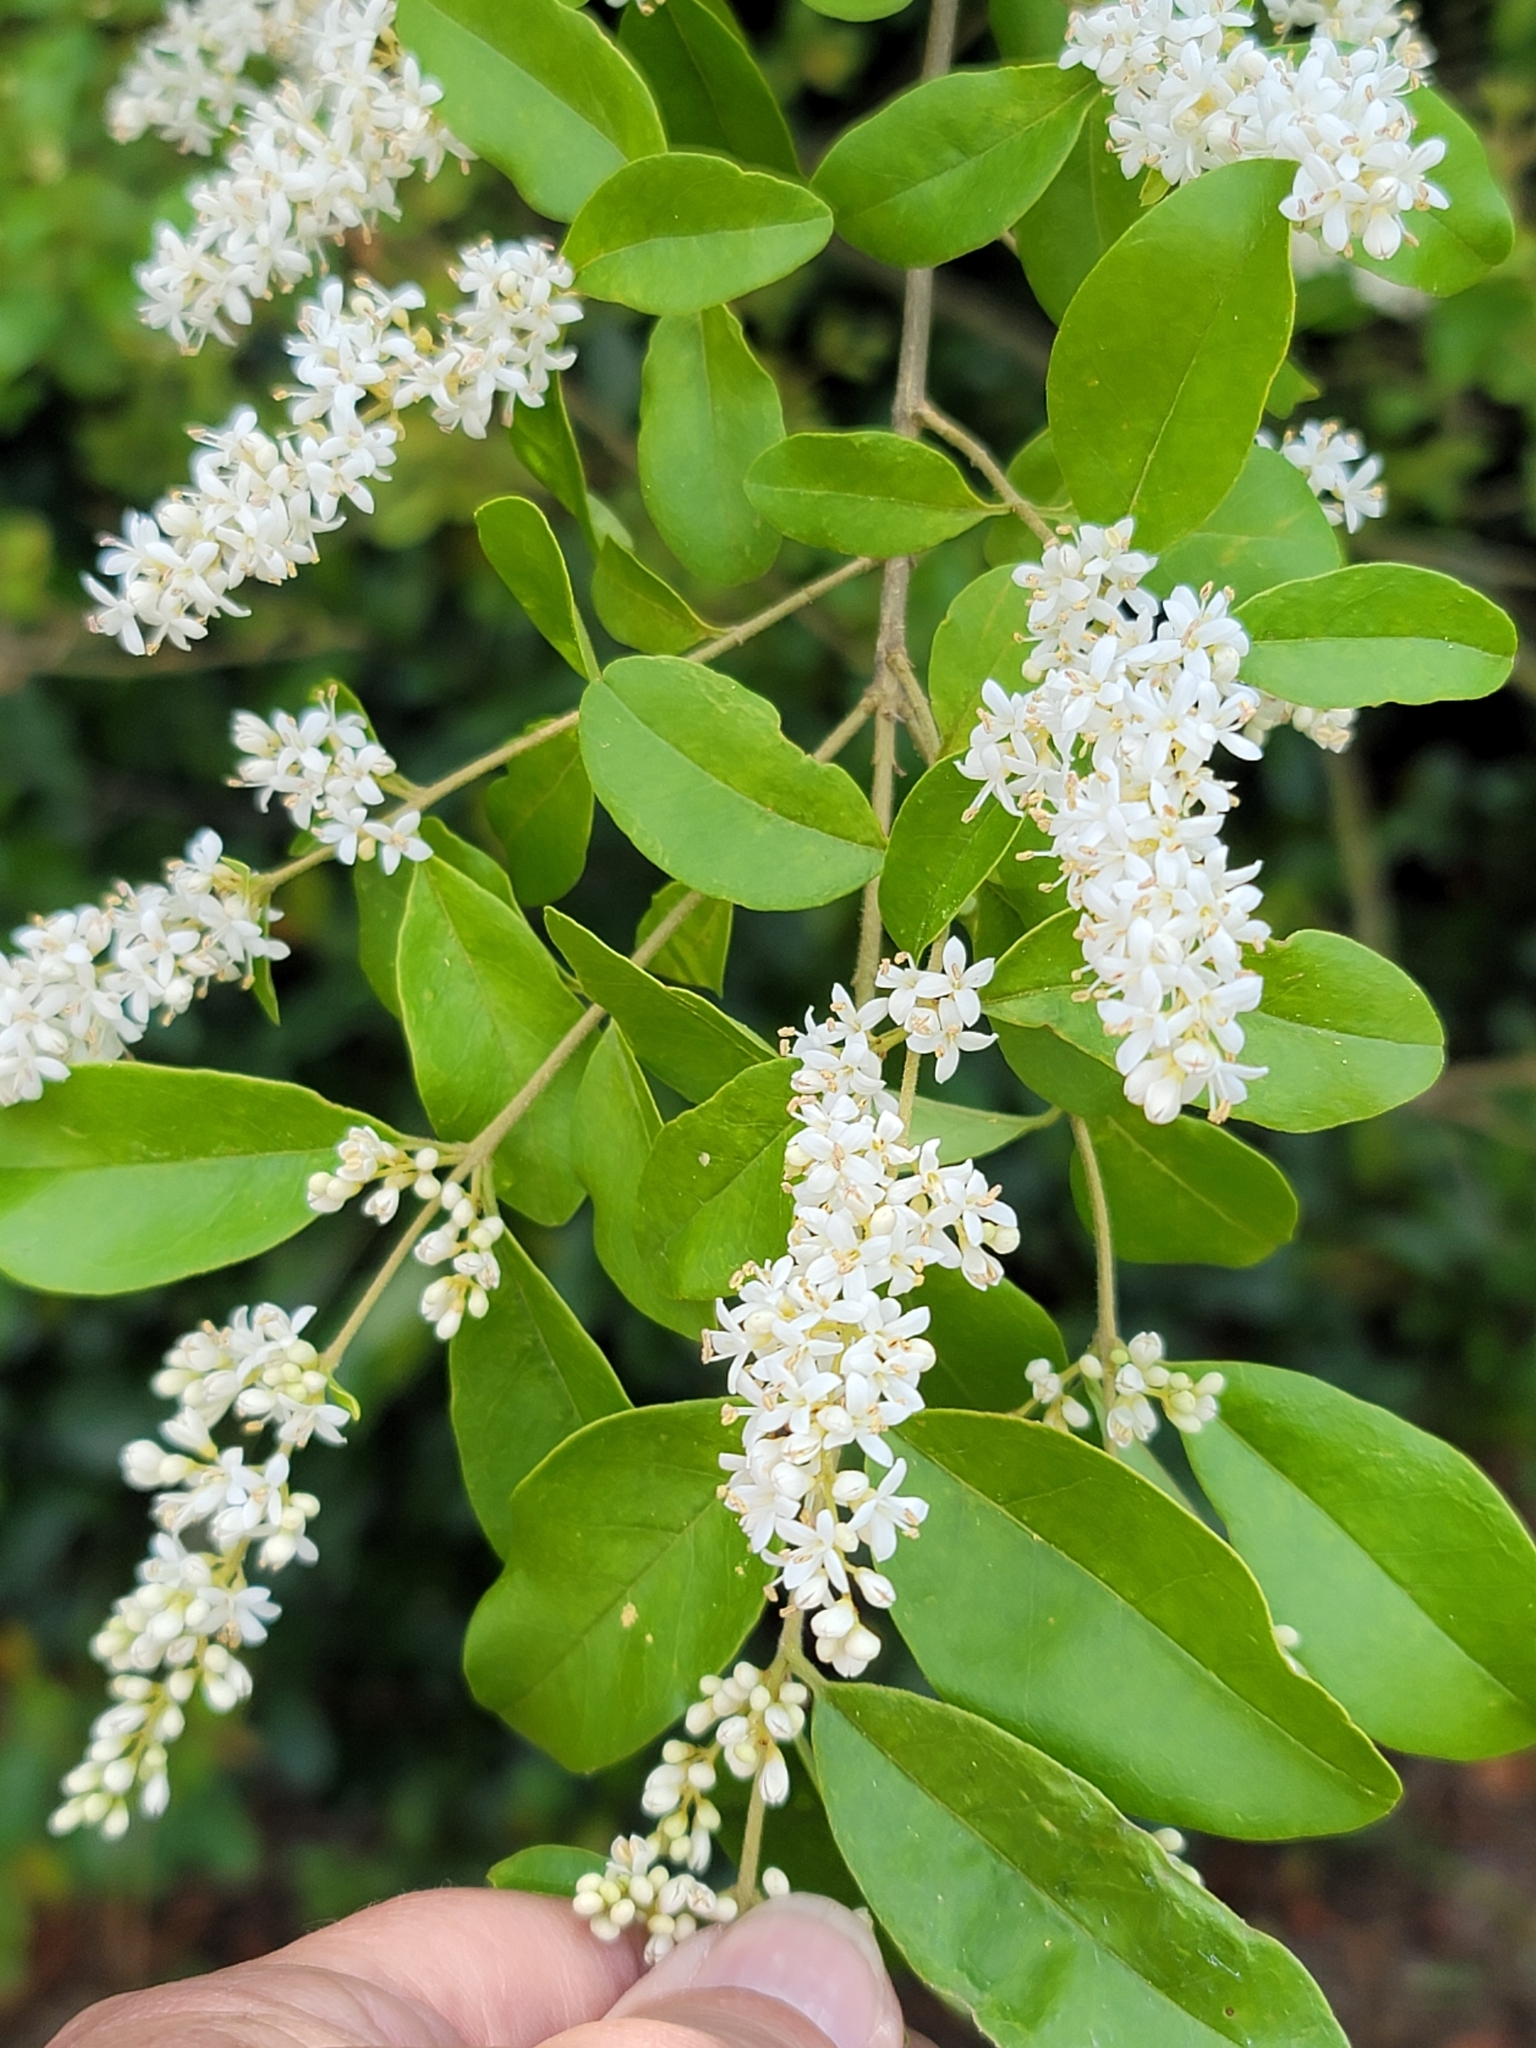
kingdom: Plantae
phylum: Tracheophyta
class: Magnoliopsida
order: Lamiales
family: Oleaceae
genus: Ligustrum
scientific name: Ligustrum sinense
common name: Chinese privet
